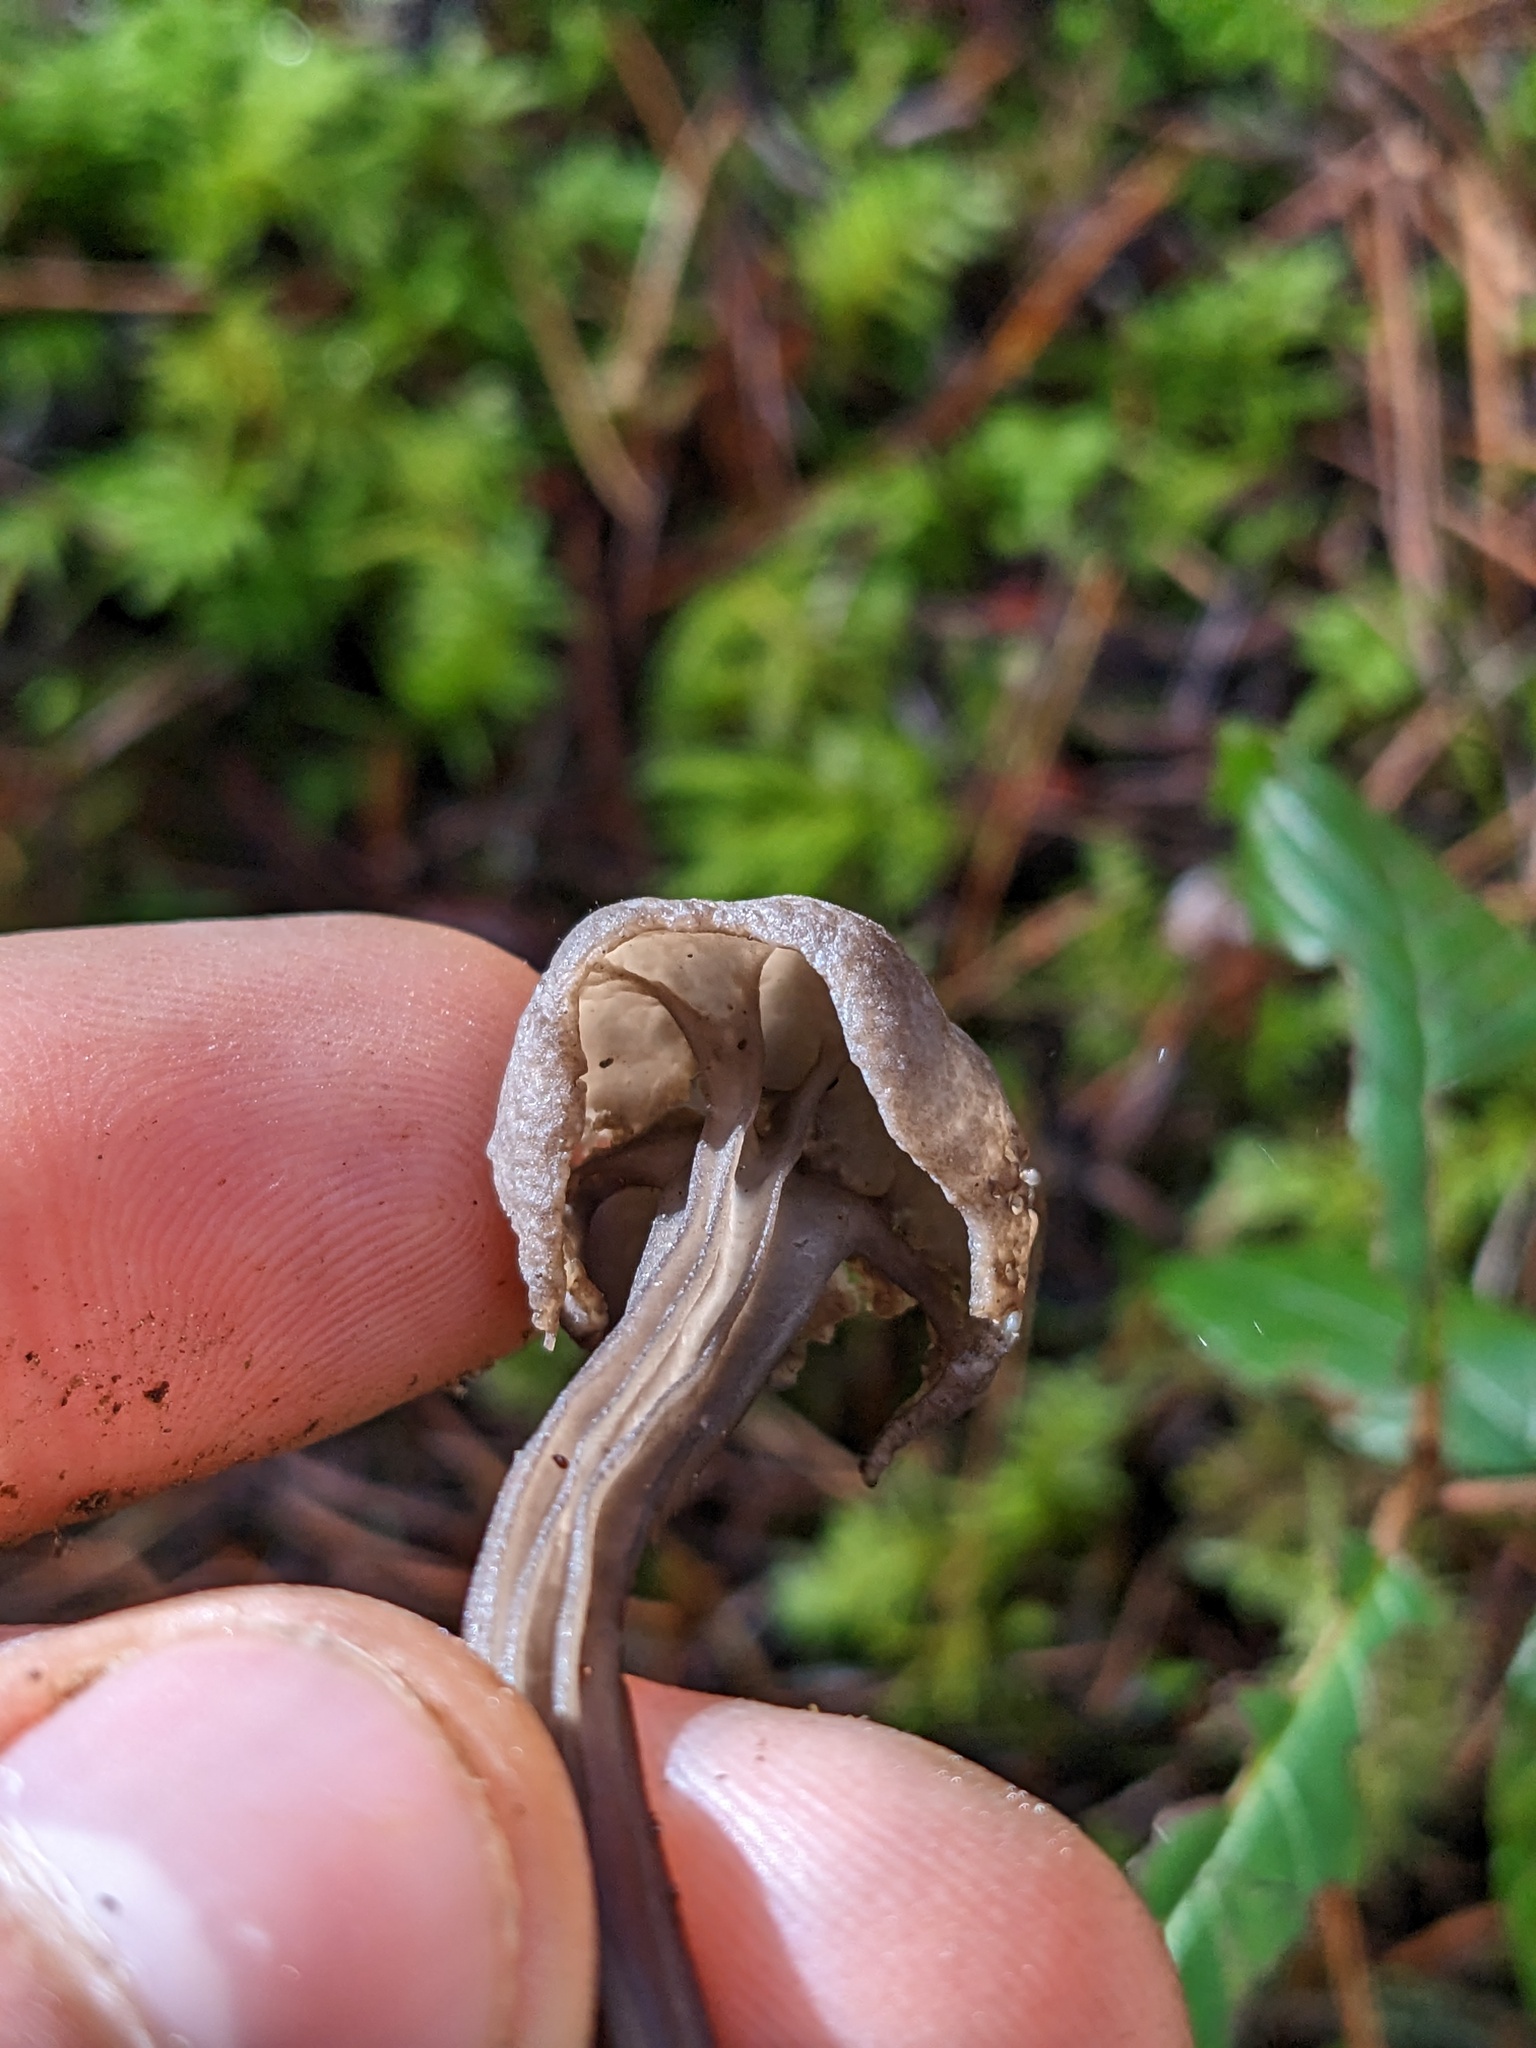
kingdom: Fungi
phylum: Ascomycota
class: Pezizomycetes
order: Pezizales
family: Helvellaceae
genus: Helvella
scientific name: Helvella vespertina
